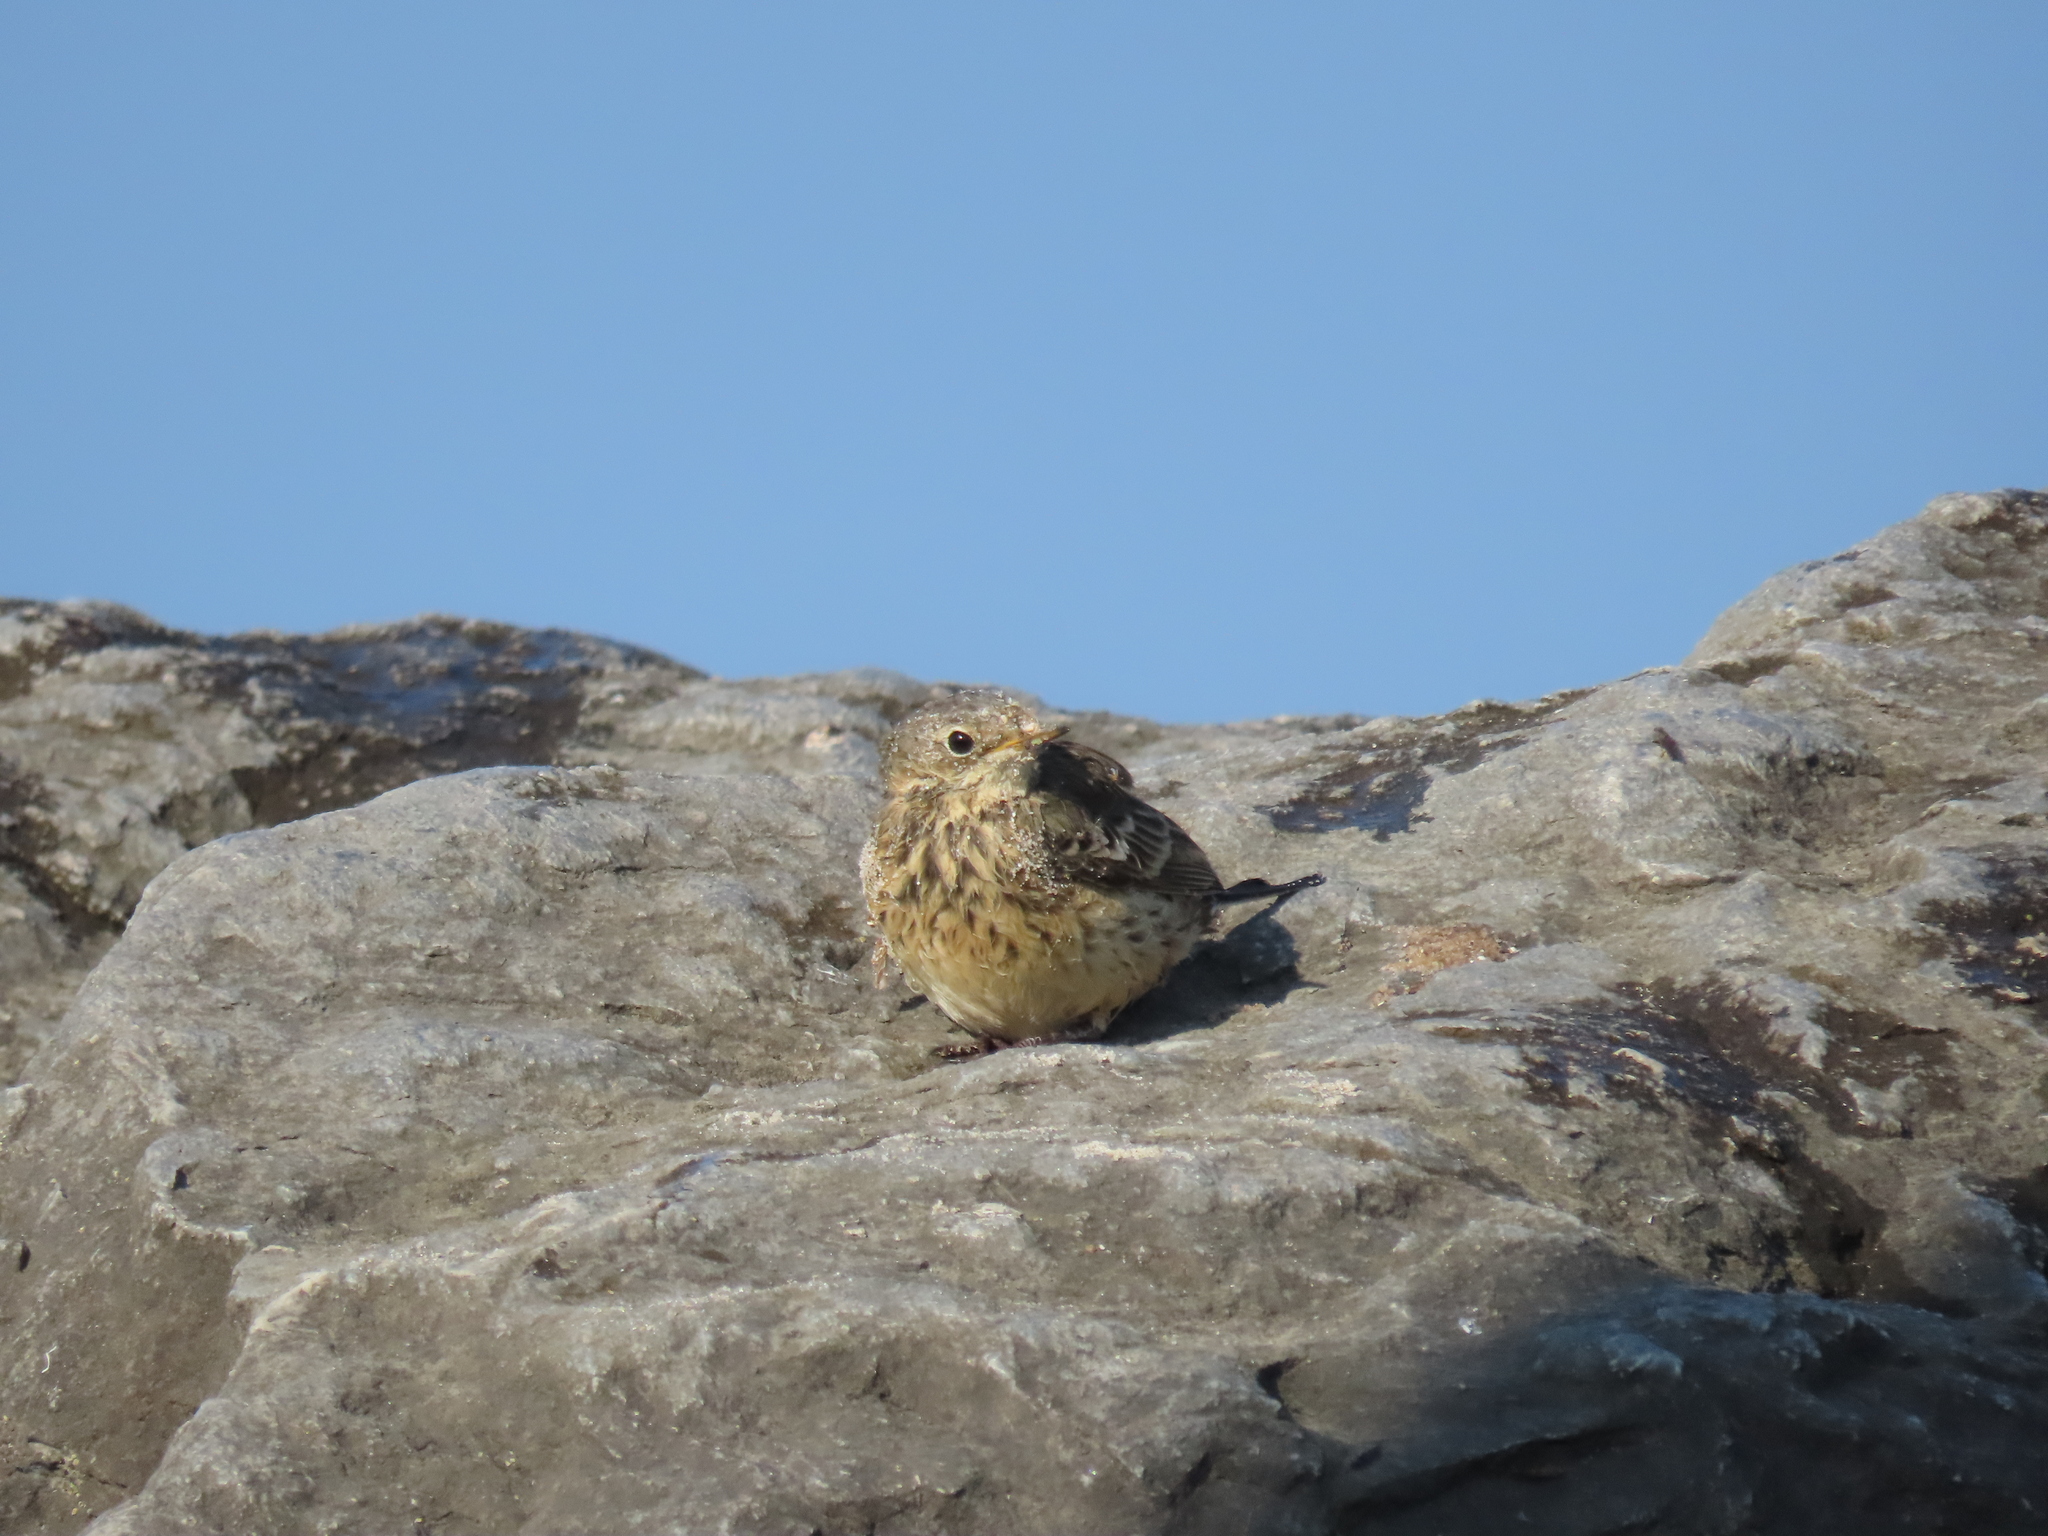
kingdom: Animalia
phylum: Chordata
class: Aves
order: Passeriformes
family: Motacillidae
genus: Anthus
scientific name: Anthus rubescens
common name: Buff-bellied pipit
